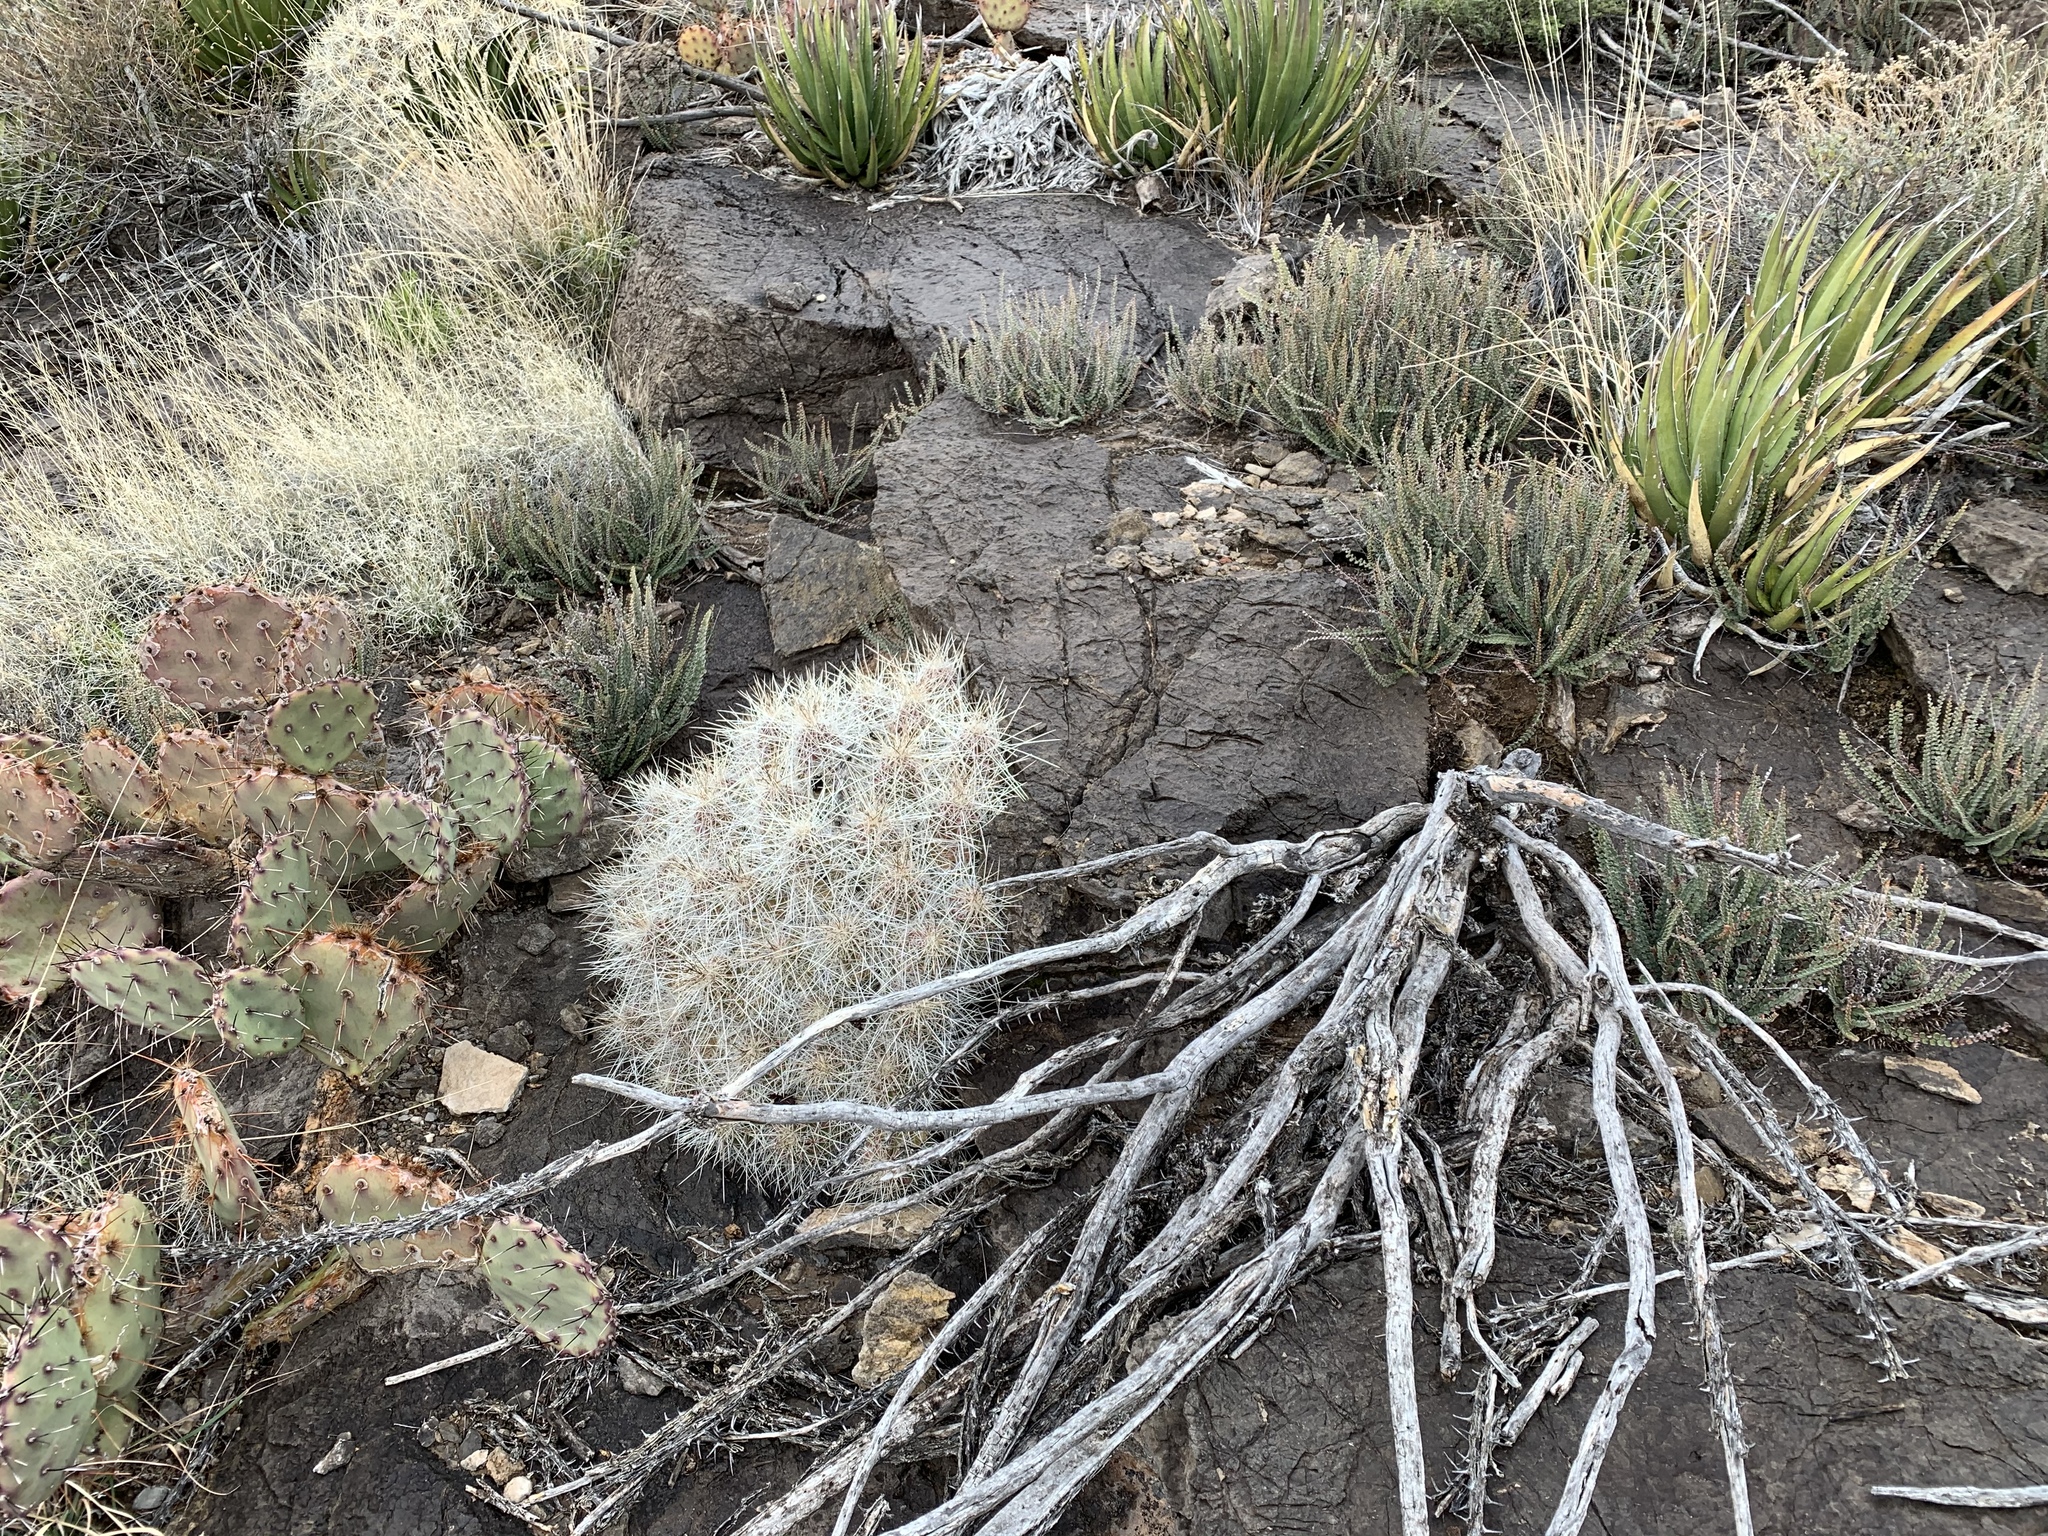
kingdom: Plantae
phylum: Tracheophyta
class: Magnoliopsida
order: Caryophyllales
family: Cactaceae
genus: Echinocereus
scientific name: Echinocereus stramineus
